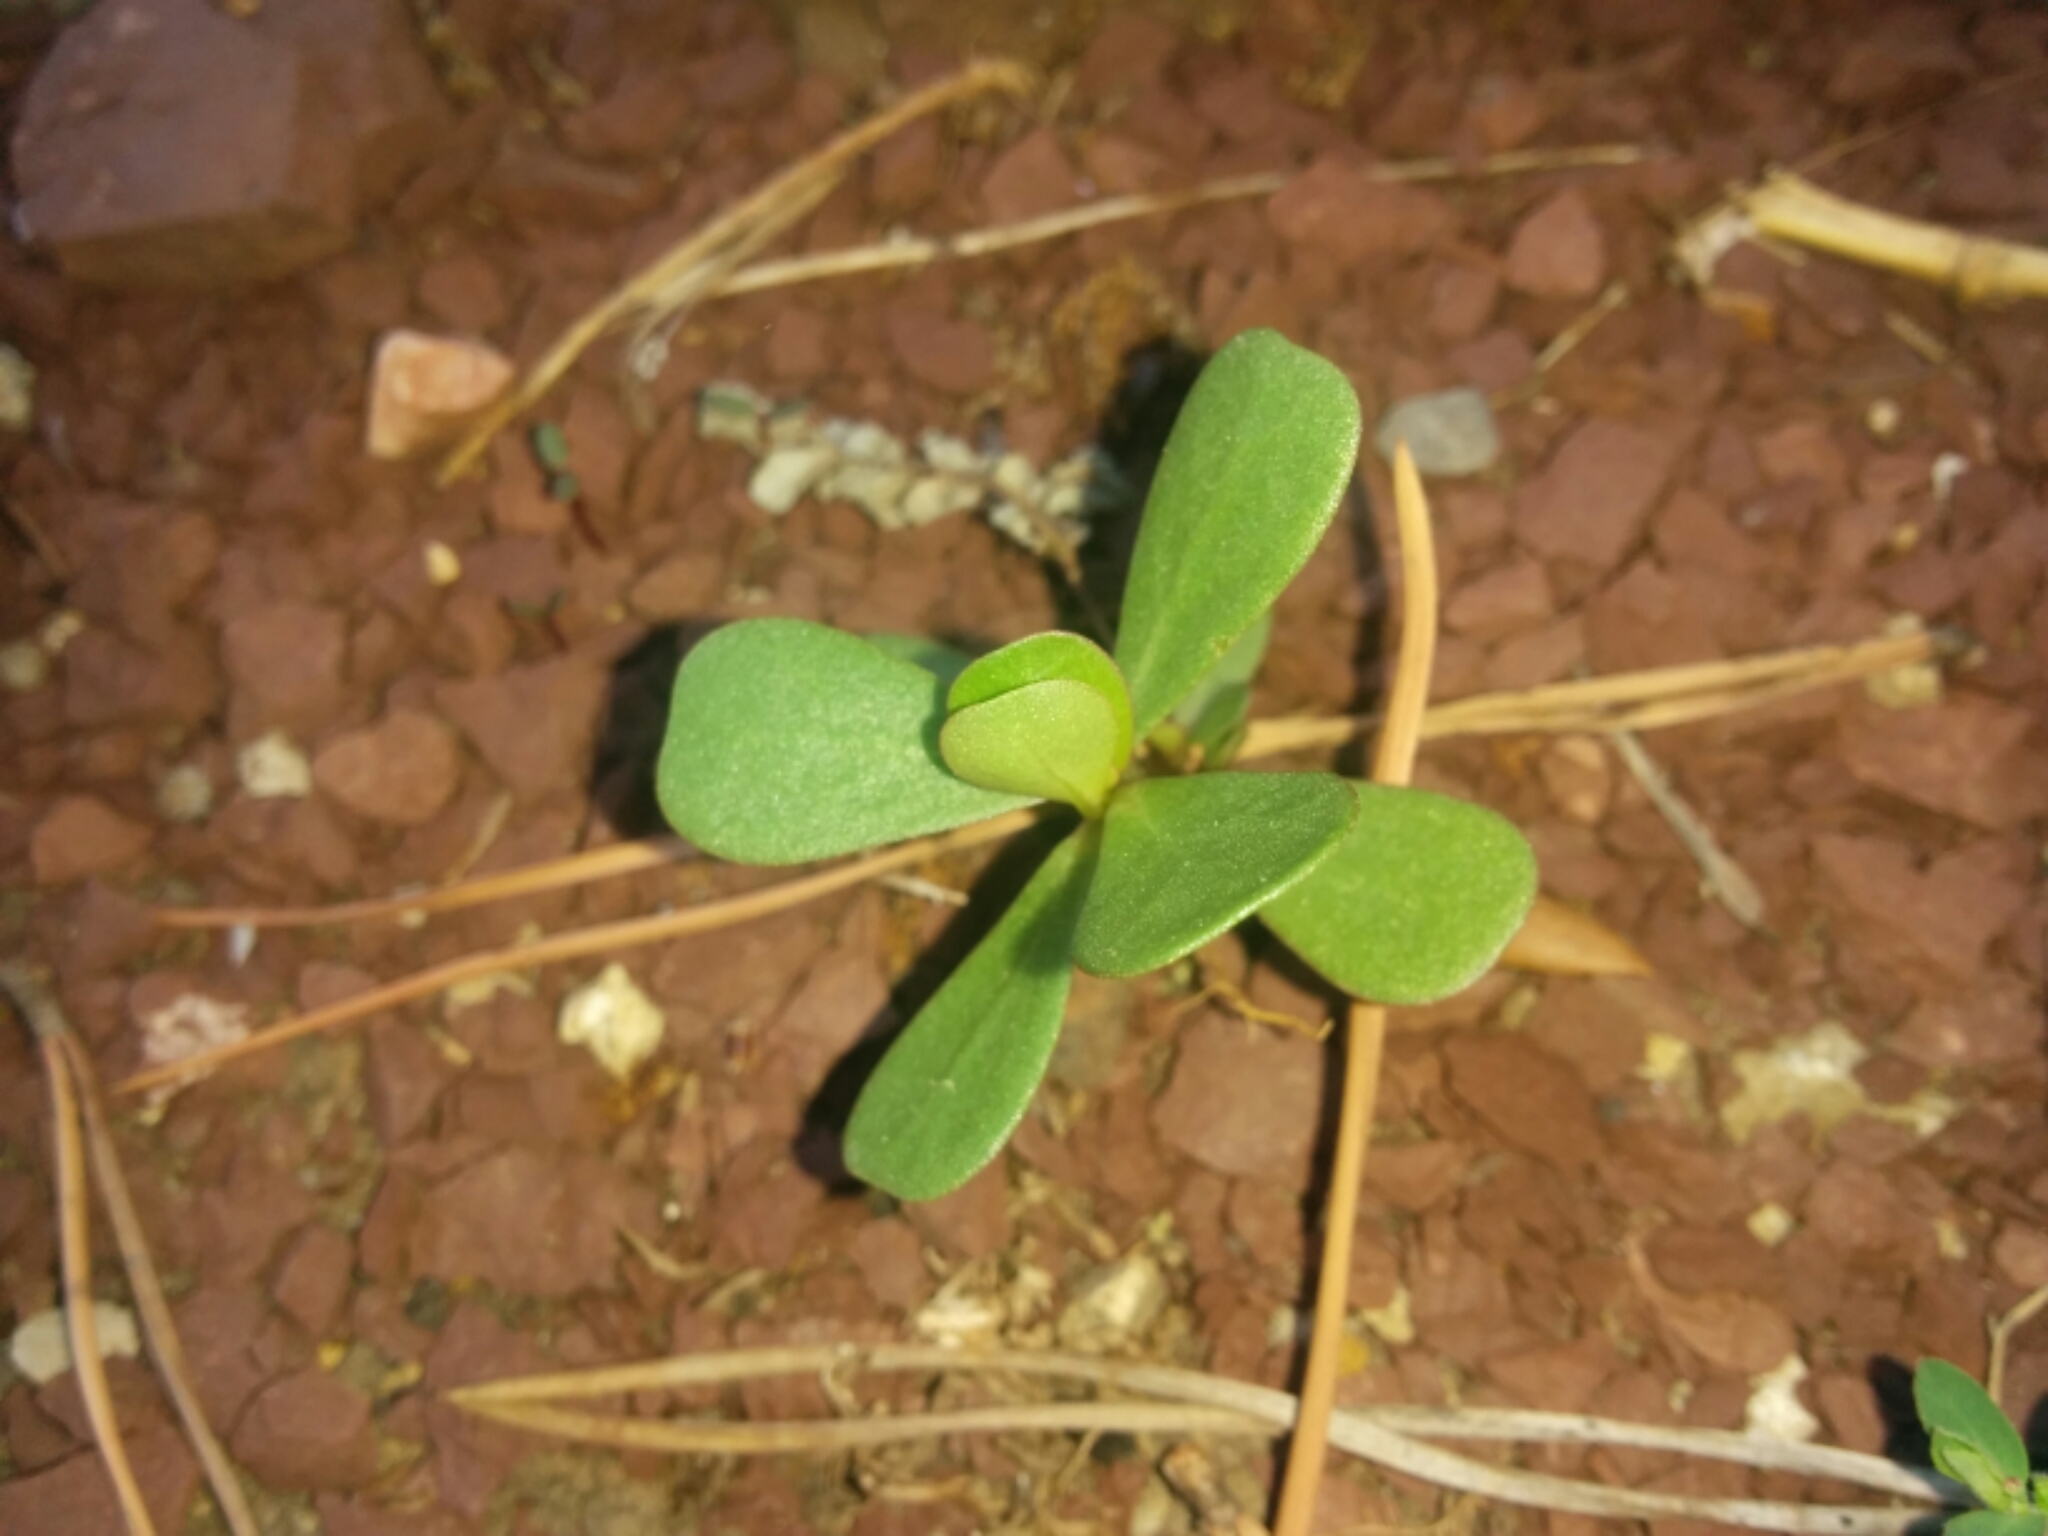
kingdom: Plantae
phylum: Tracheophyta
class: Magnoliopsida
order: Caryophyllales
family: Portulacaceae
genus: Portulaca
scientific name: Portulaca oleracea
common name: Common purslane
